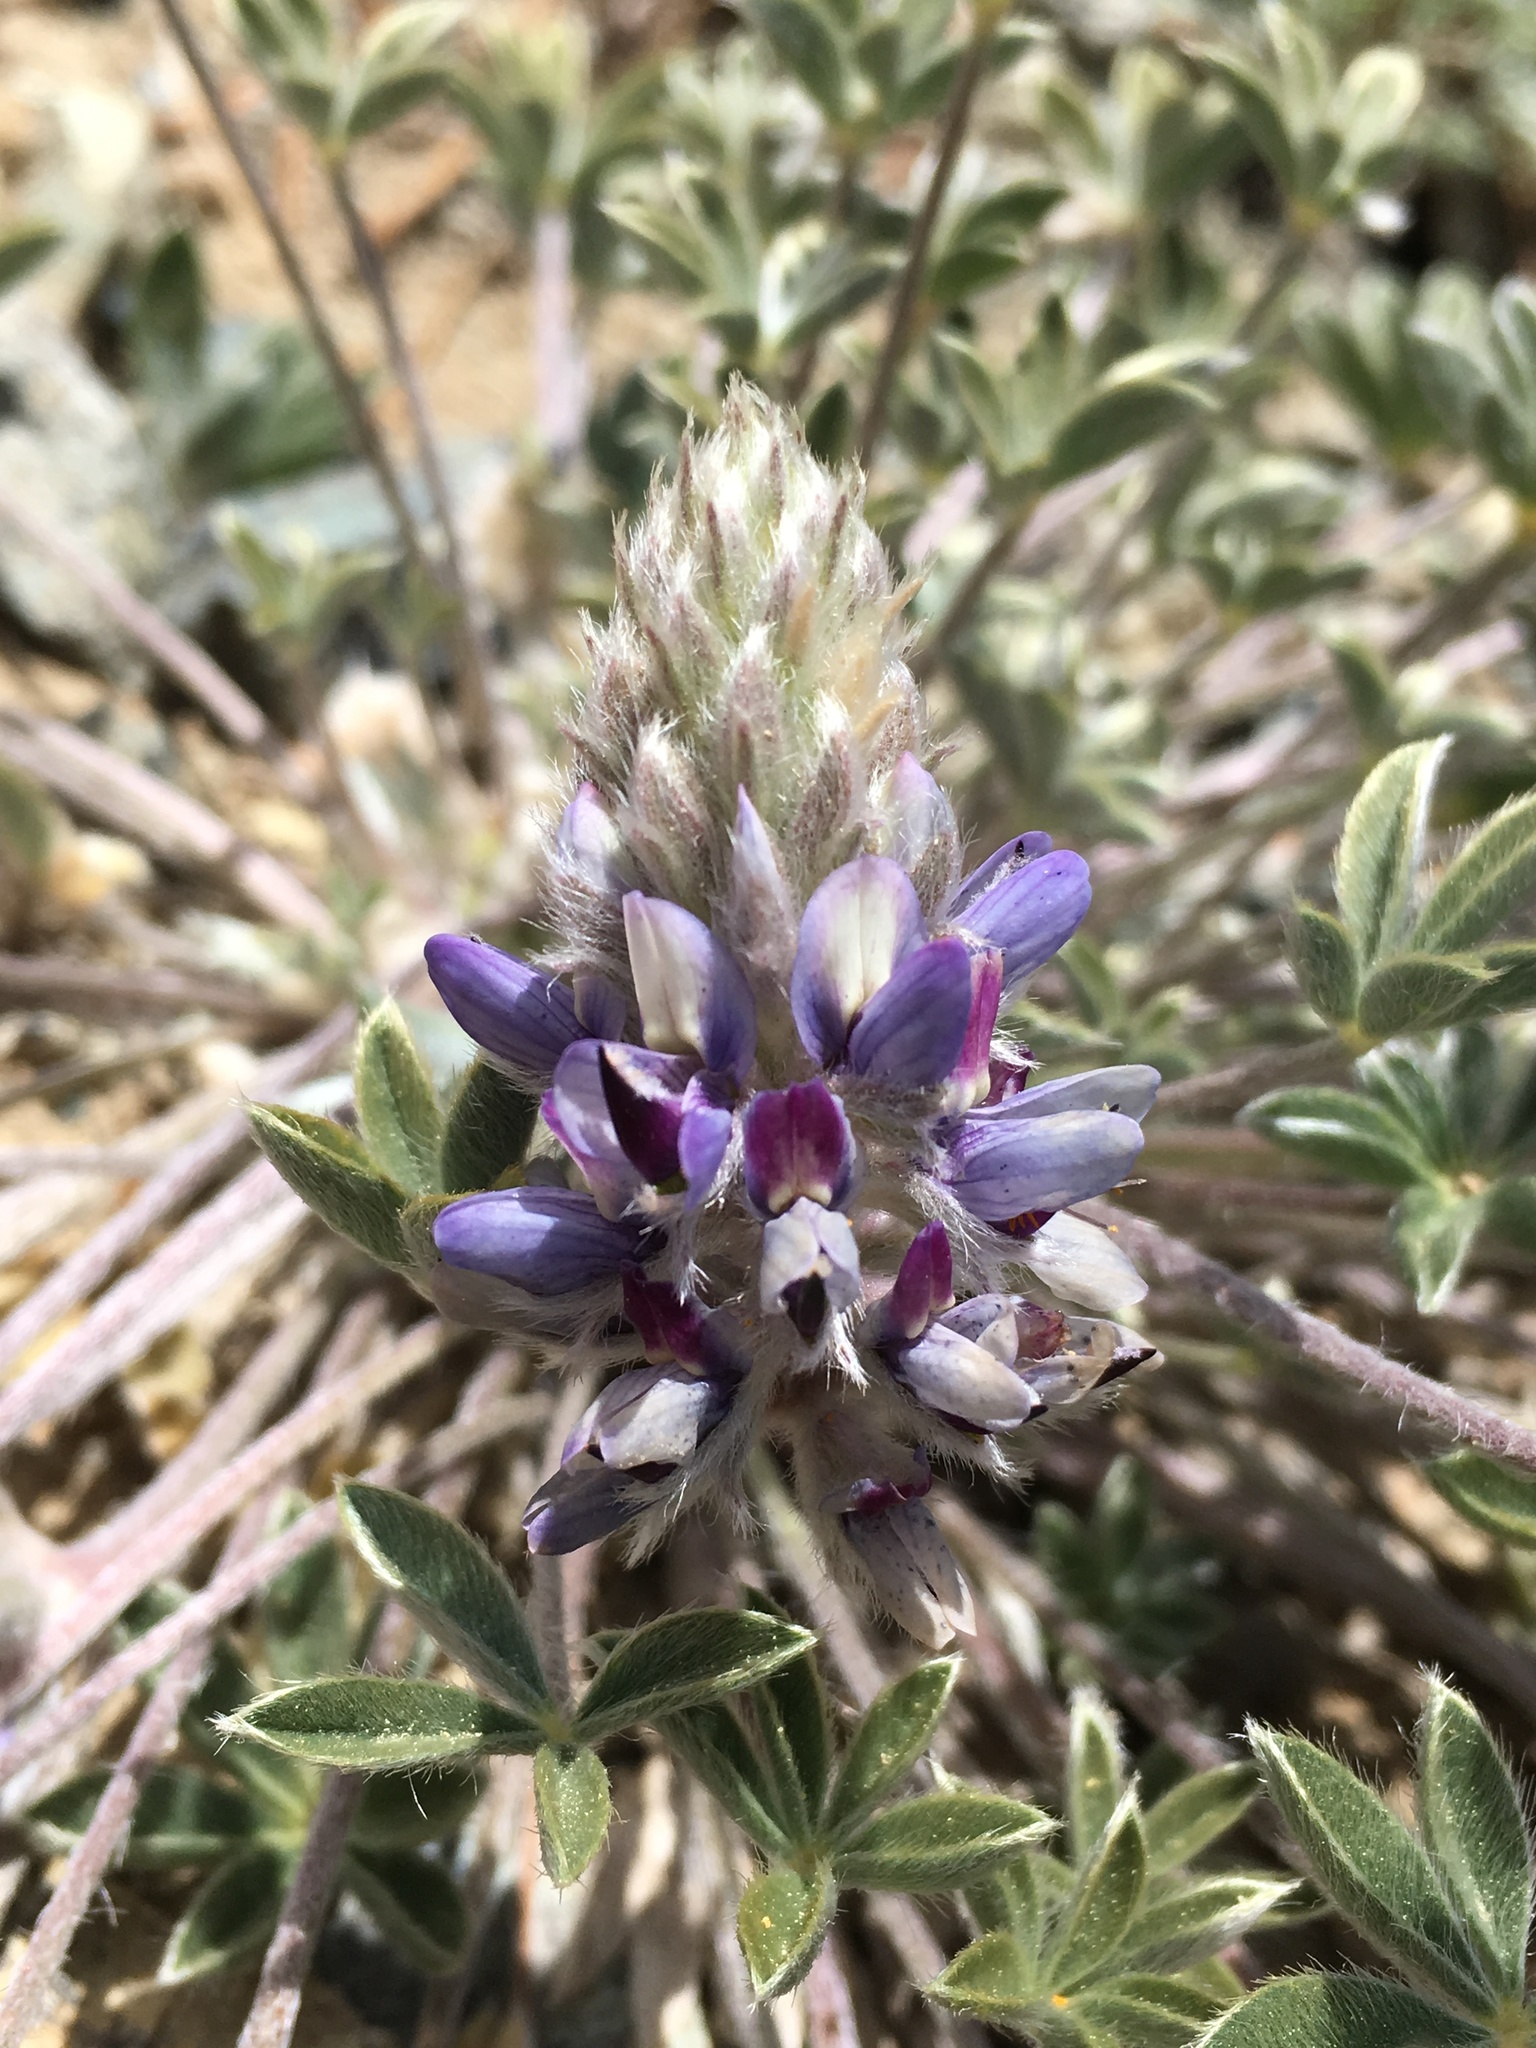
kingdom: Plantae
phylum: Tracheophyta
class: Magnoliopsida
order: Fabales
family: Fabaceae
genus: Lupinus
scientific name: Lupinus lepidus
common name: Prairie lupine
